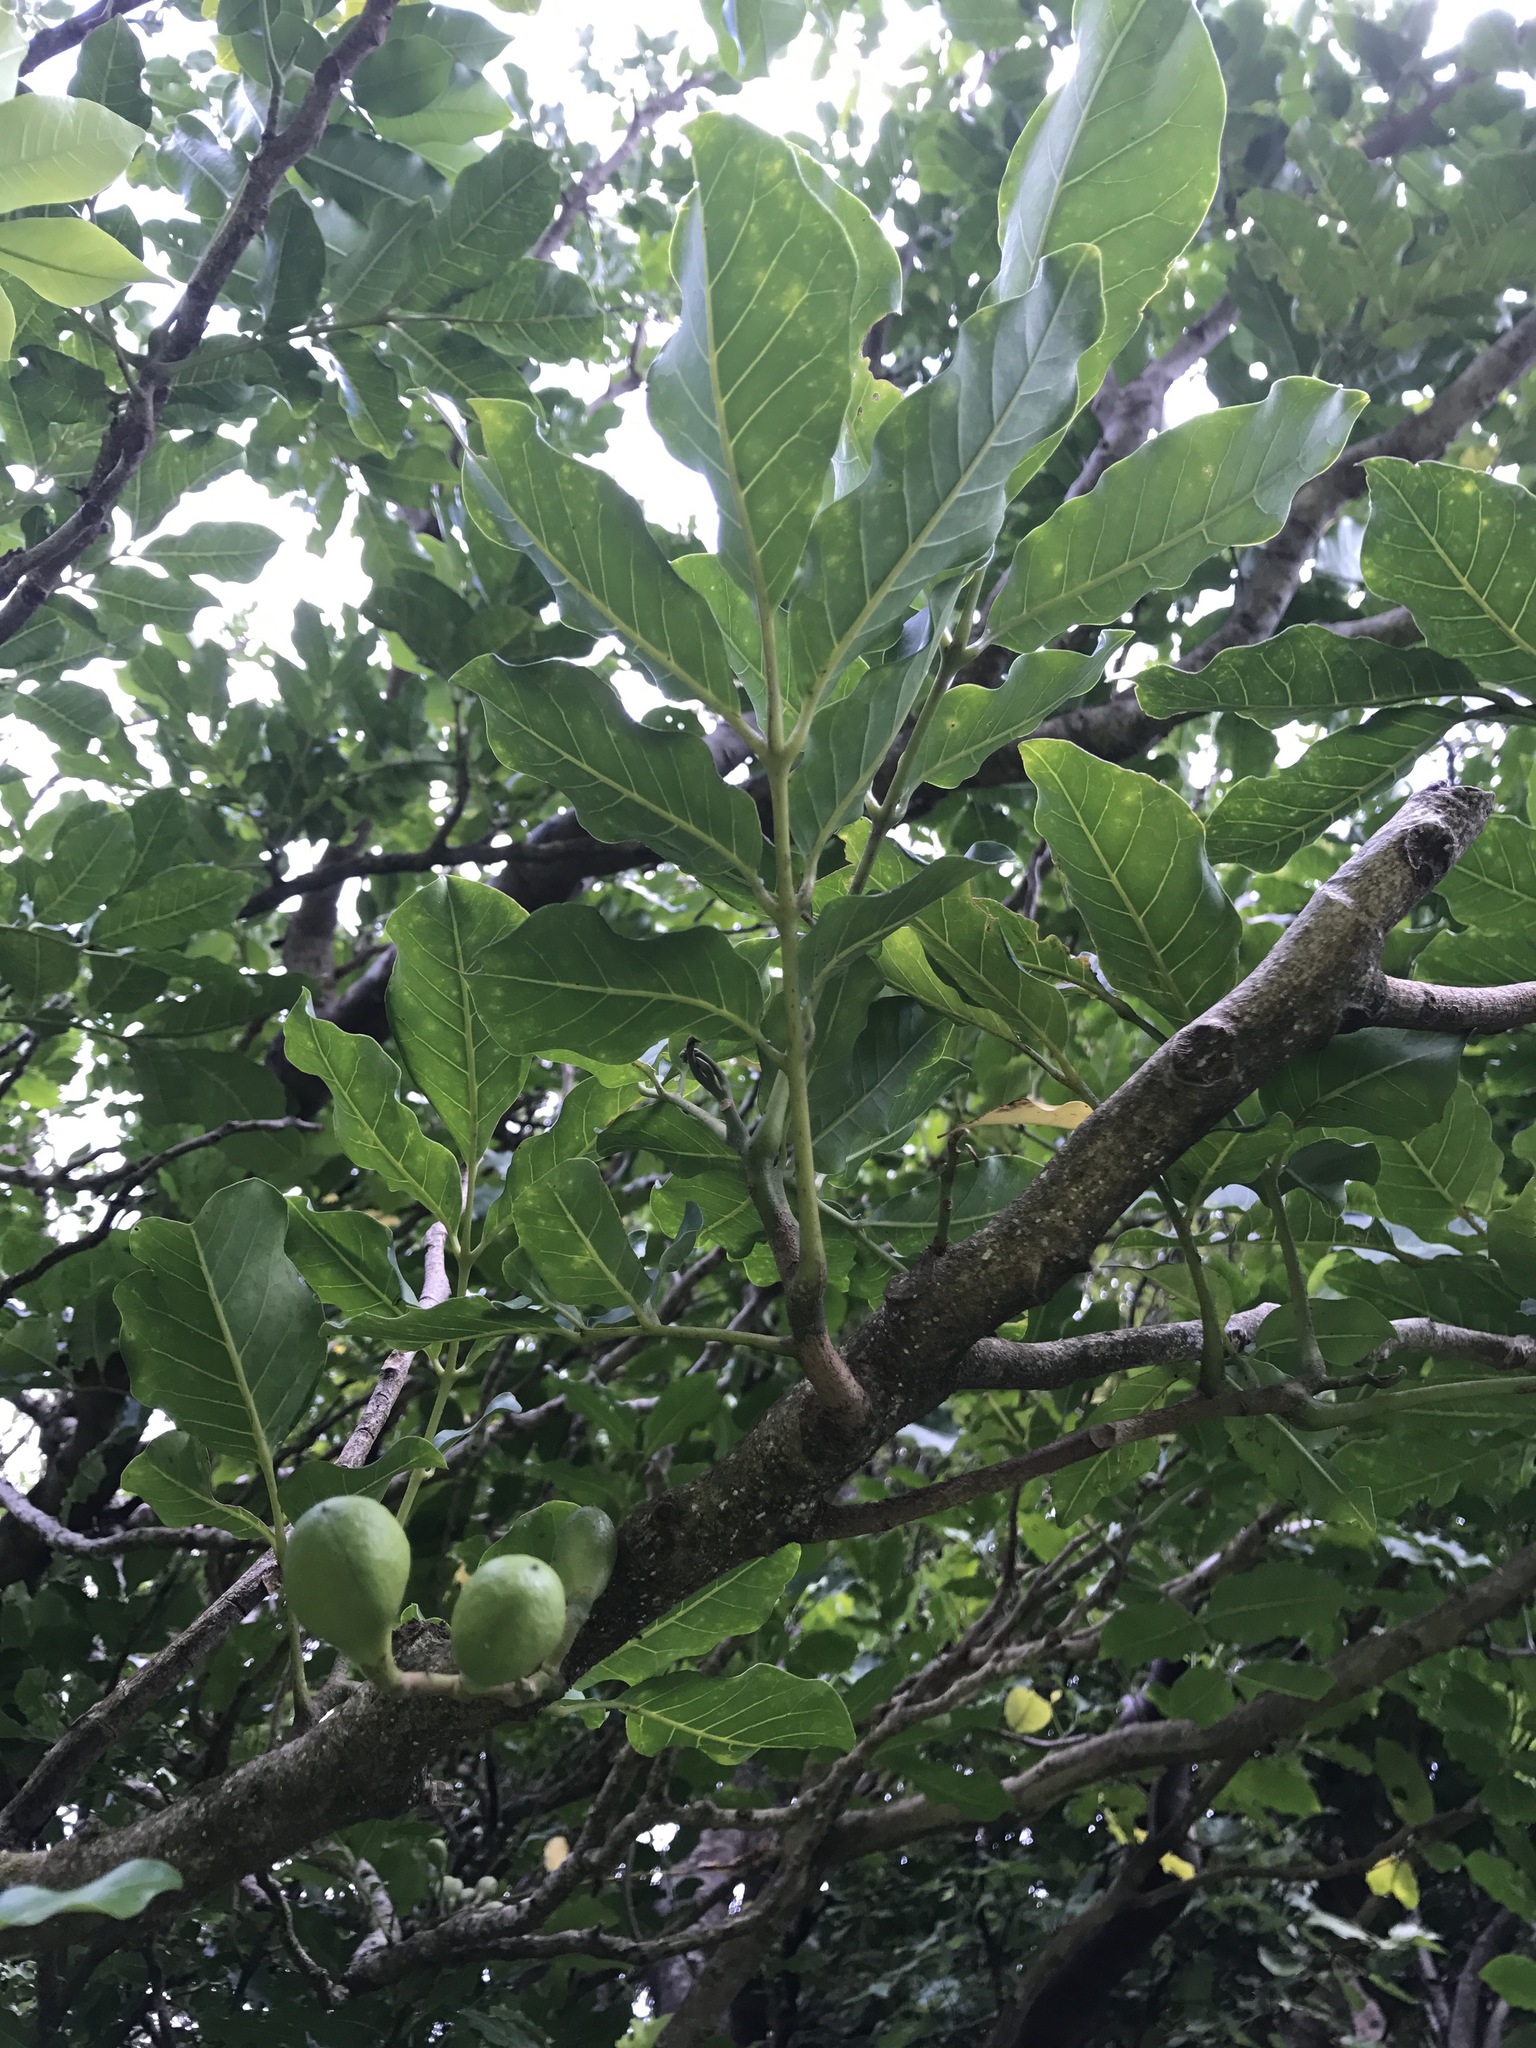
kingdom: Plantae
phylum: Tracheophyta
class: Magnoliopsida
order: Sapindales
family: Meliaceae
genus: Didymocheton
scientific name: Didymocheton spectabilis
